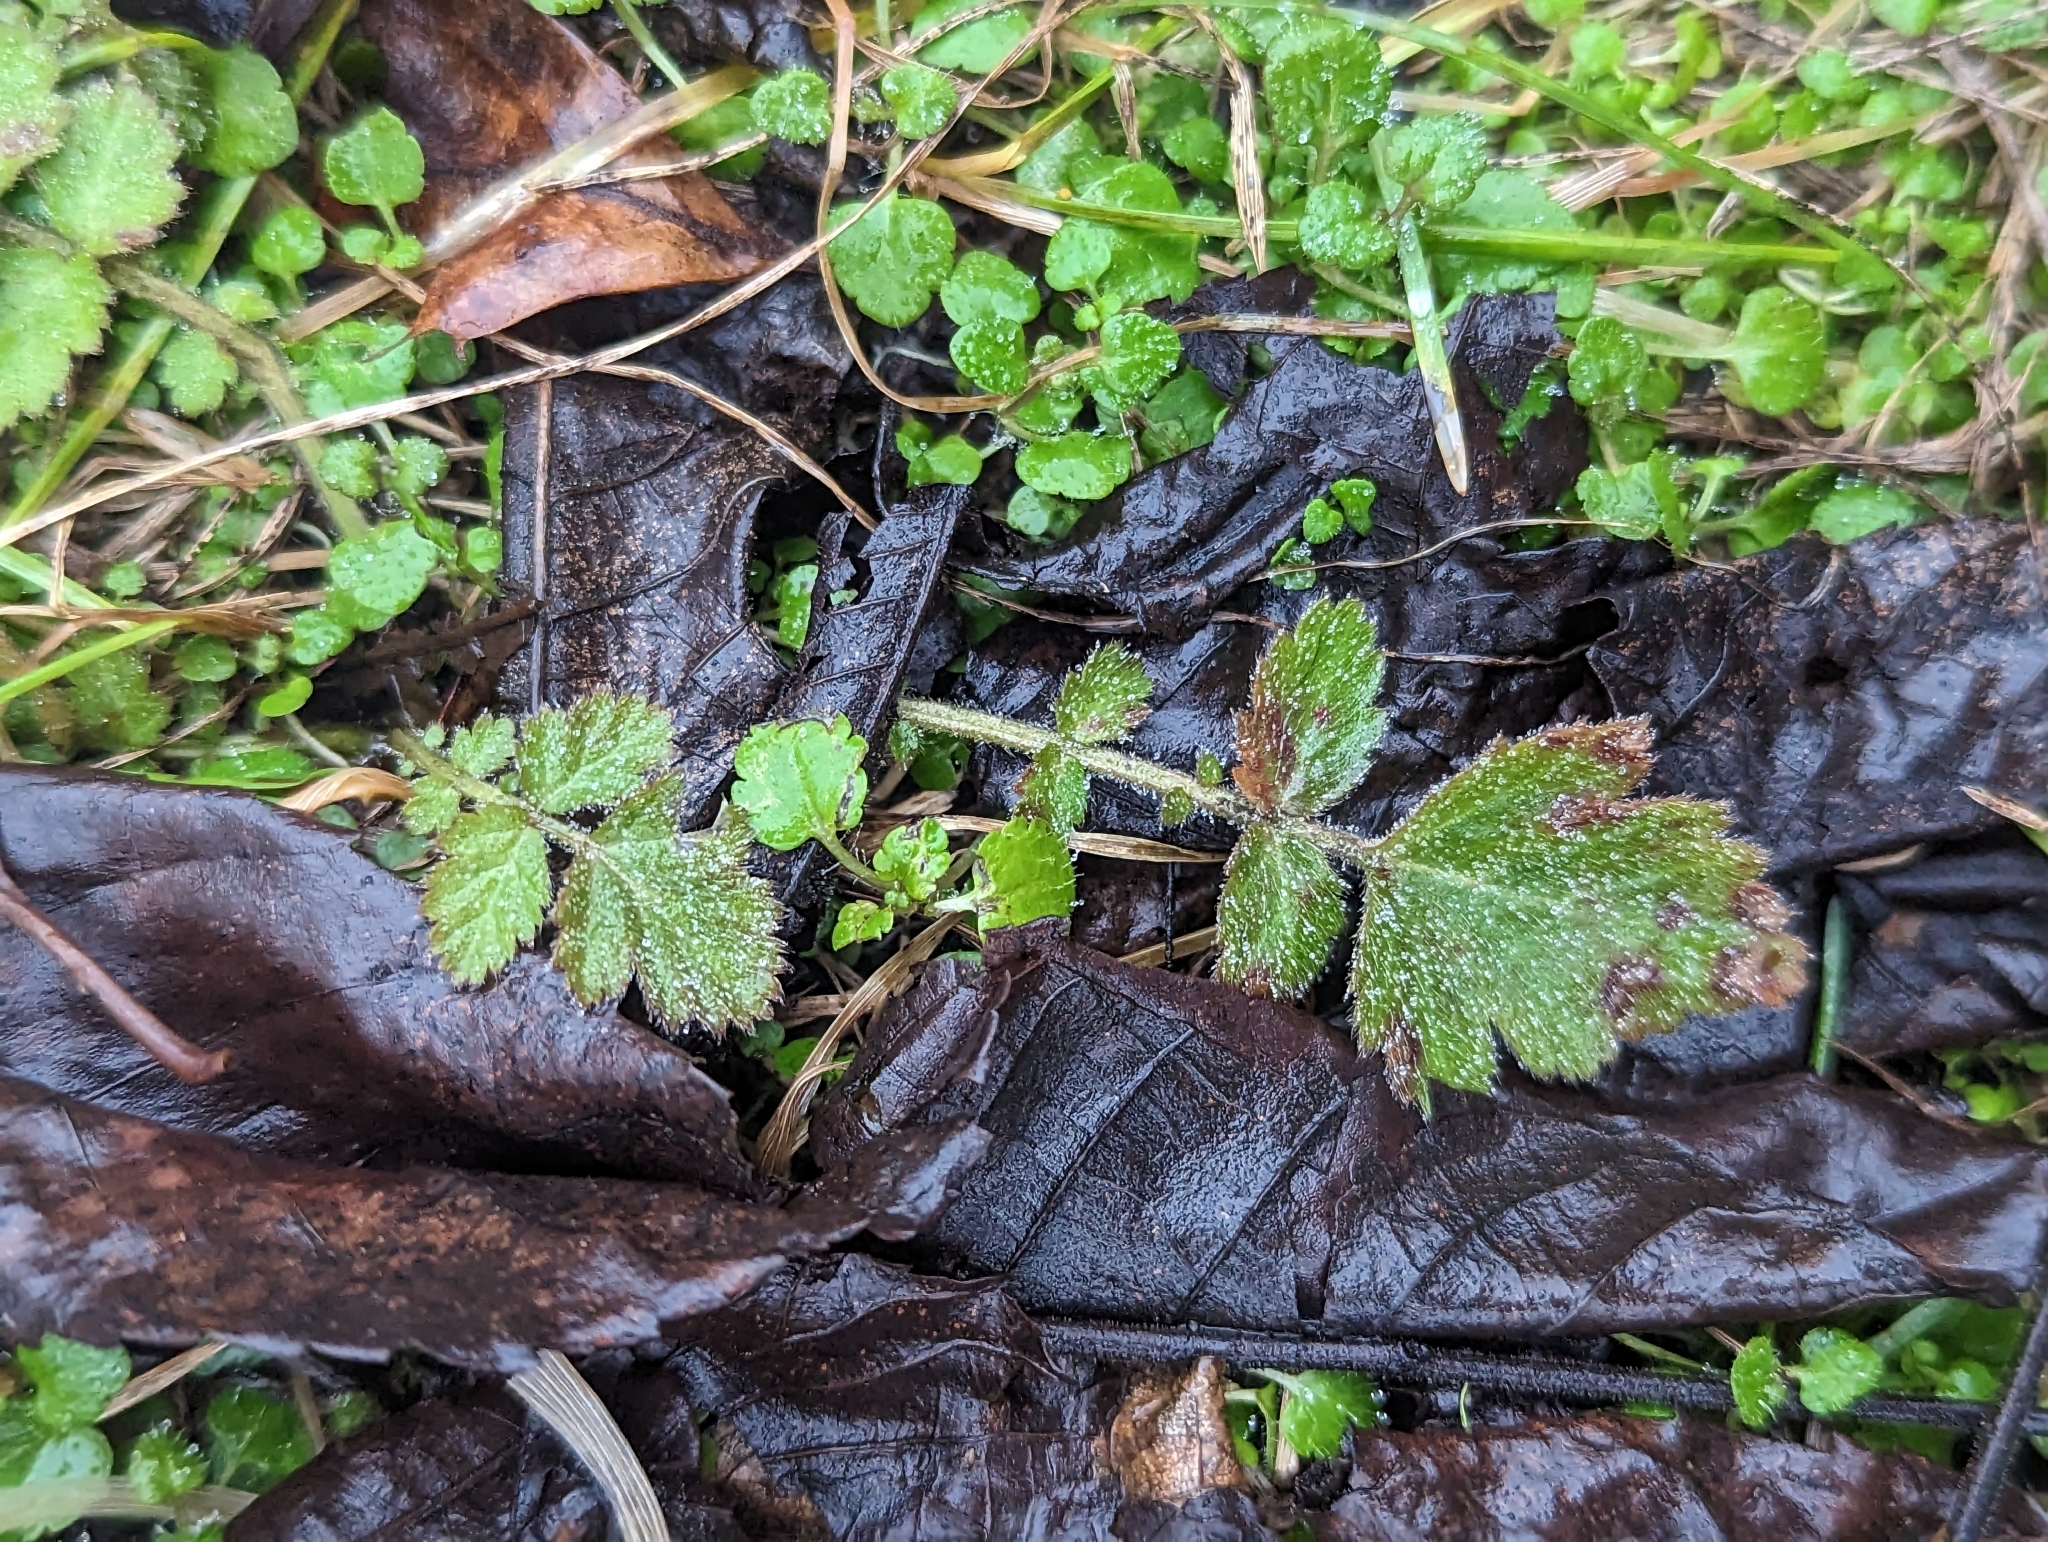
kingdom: Plantae
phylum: Tracheophyta
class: Magnoliopsida
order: Rosales
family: Rosaceae
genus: Geum
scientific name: Geum canadense
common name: White avens
